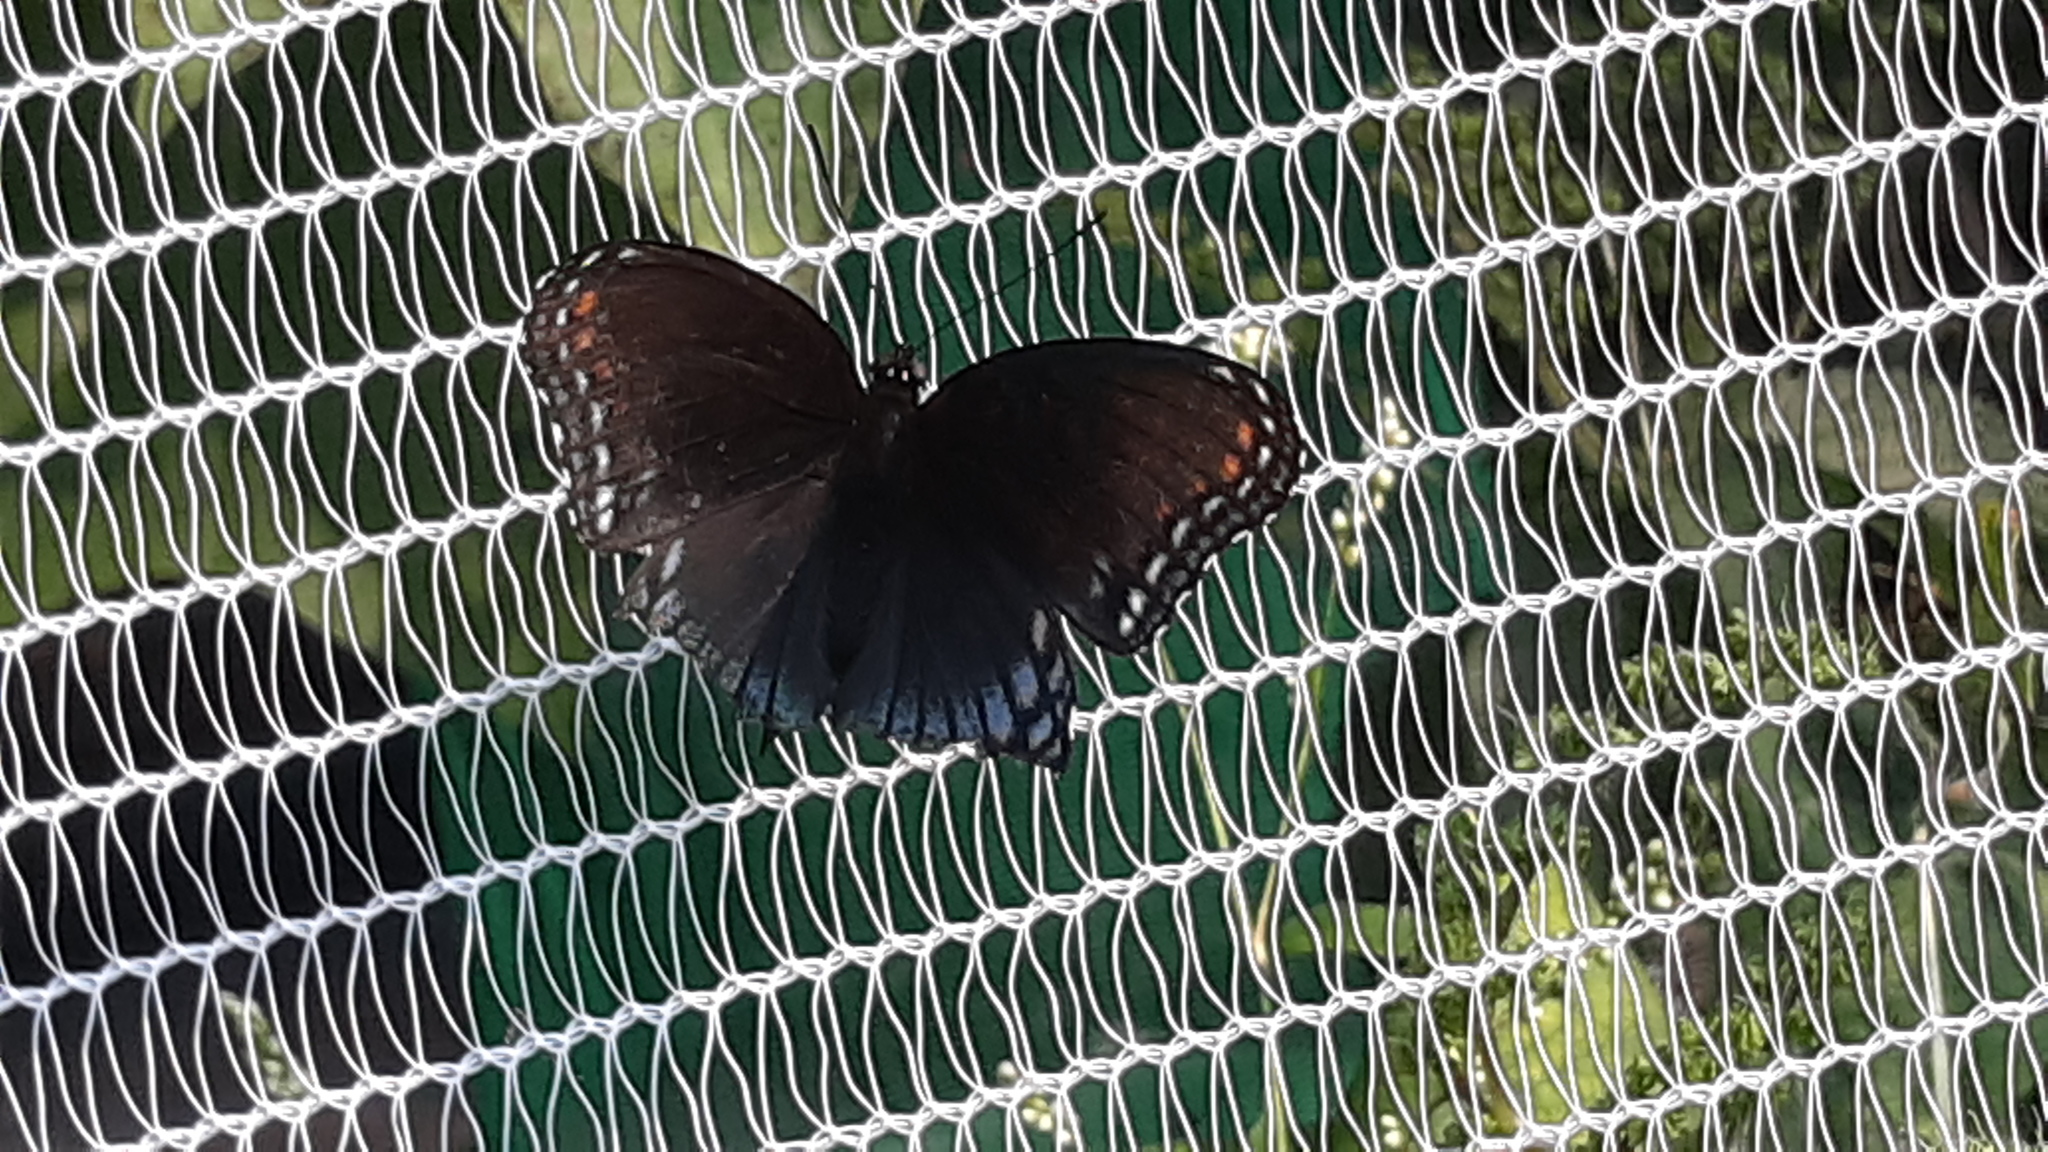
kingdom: Animalia
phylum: Arthropoda
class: Insecta
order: Lepidoptera
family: Nymphalidae
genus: Limenitis
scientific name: Limenitis arthemis
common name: Red-spotted admiral
